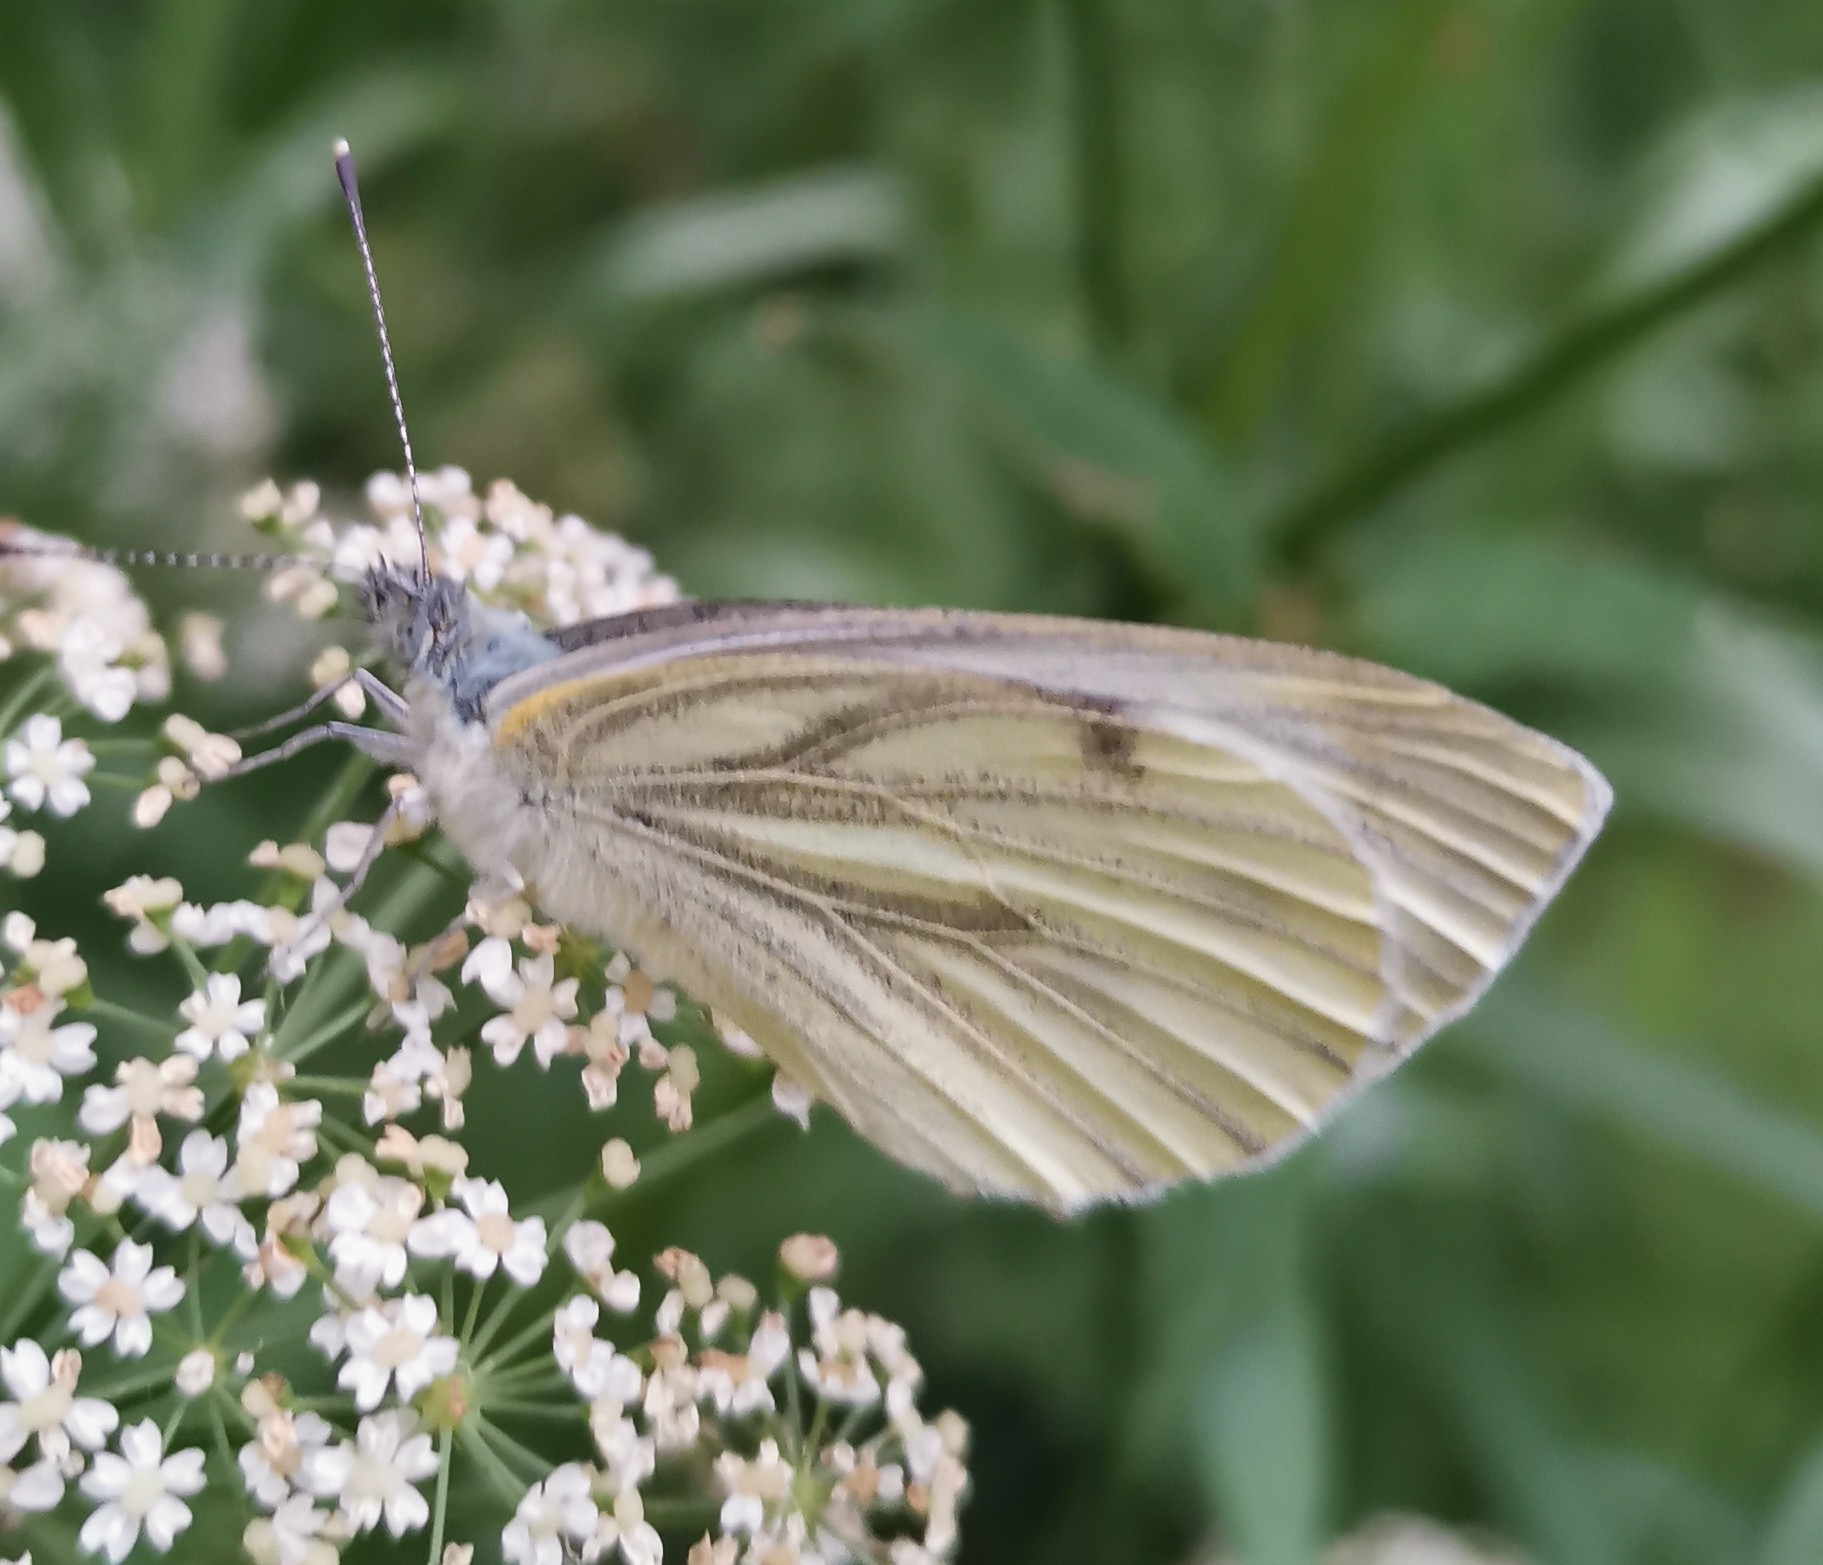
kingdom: Animalia
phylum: Arthropoda
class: Insecta
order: Lepidoptera
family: Pieridae
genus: Pieris
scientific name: Pieris napi
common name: Green-veined white
